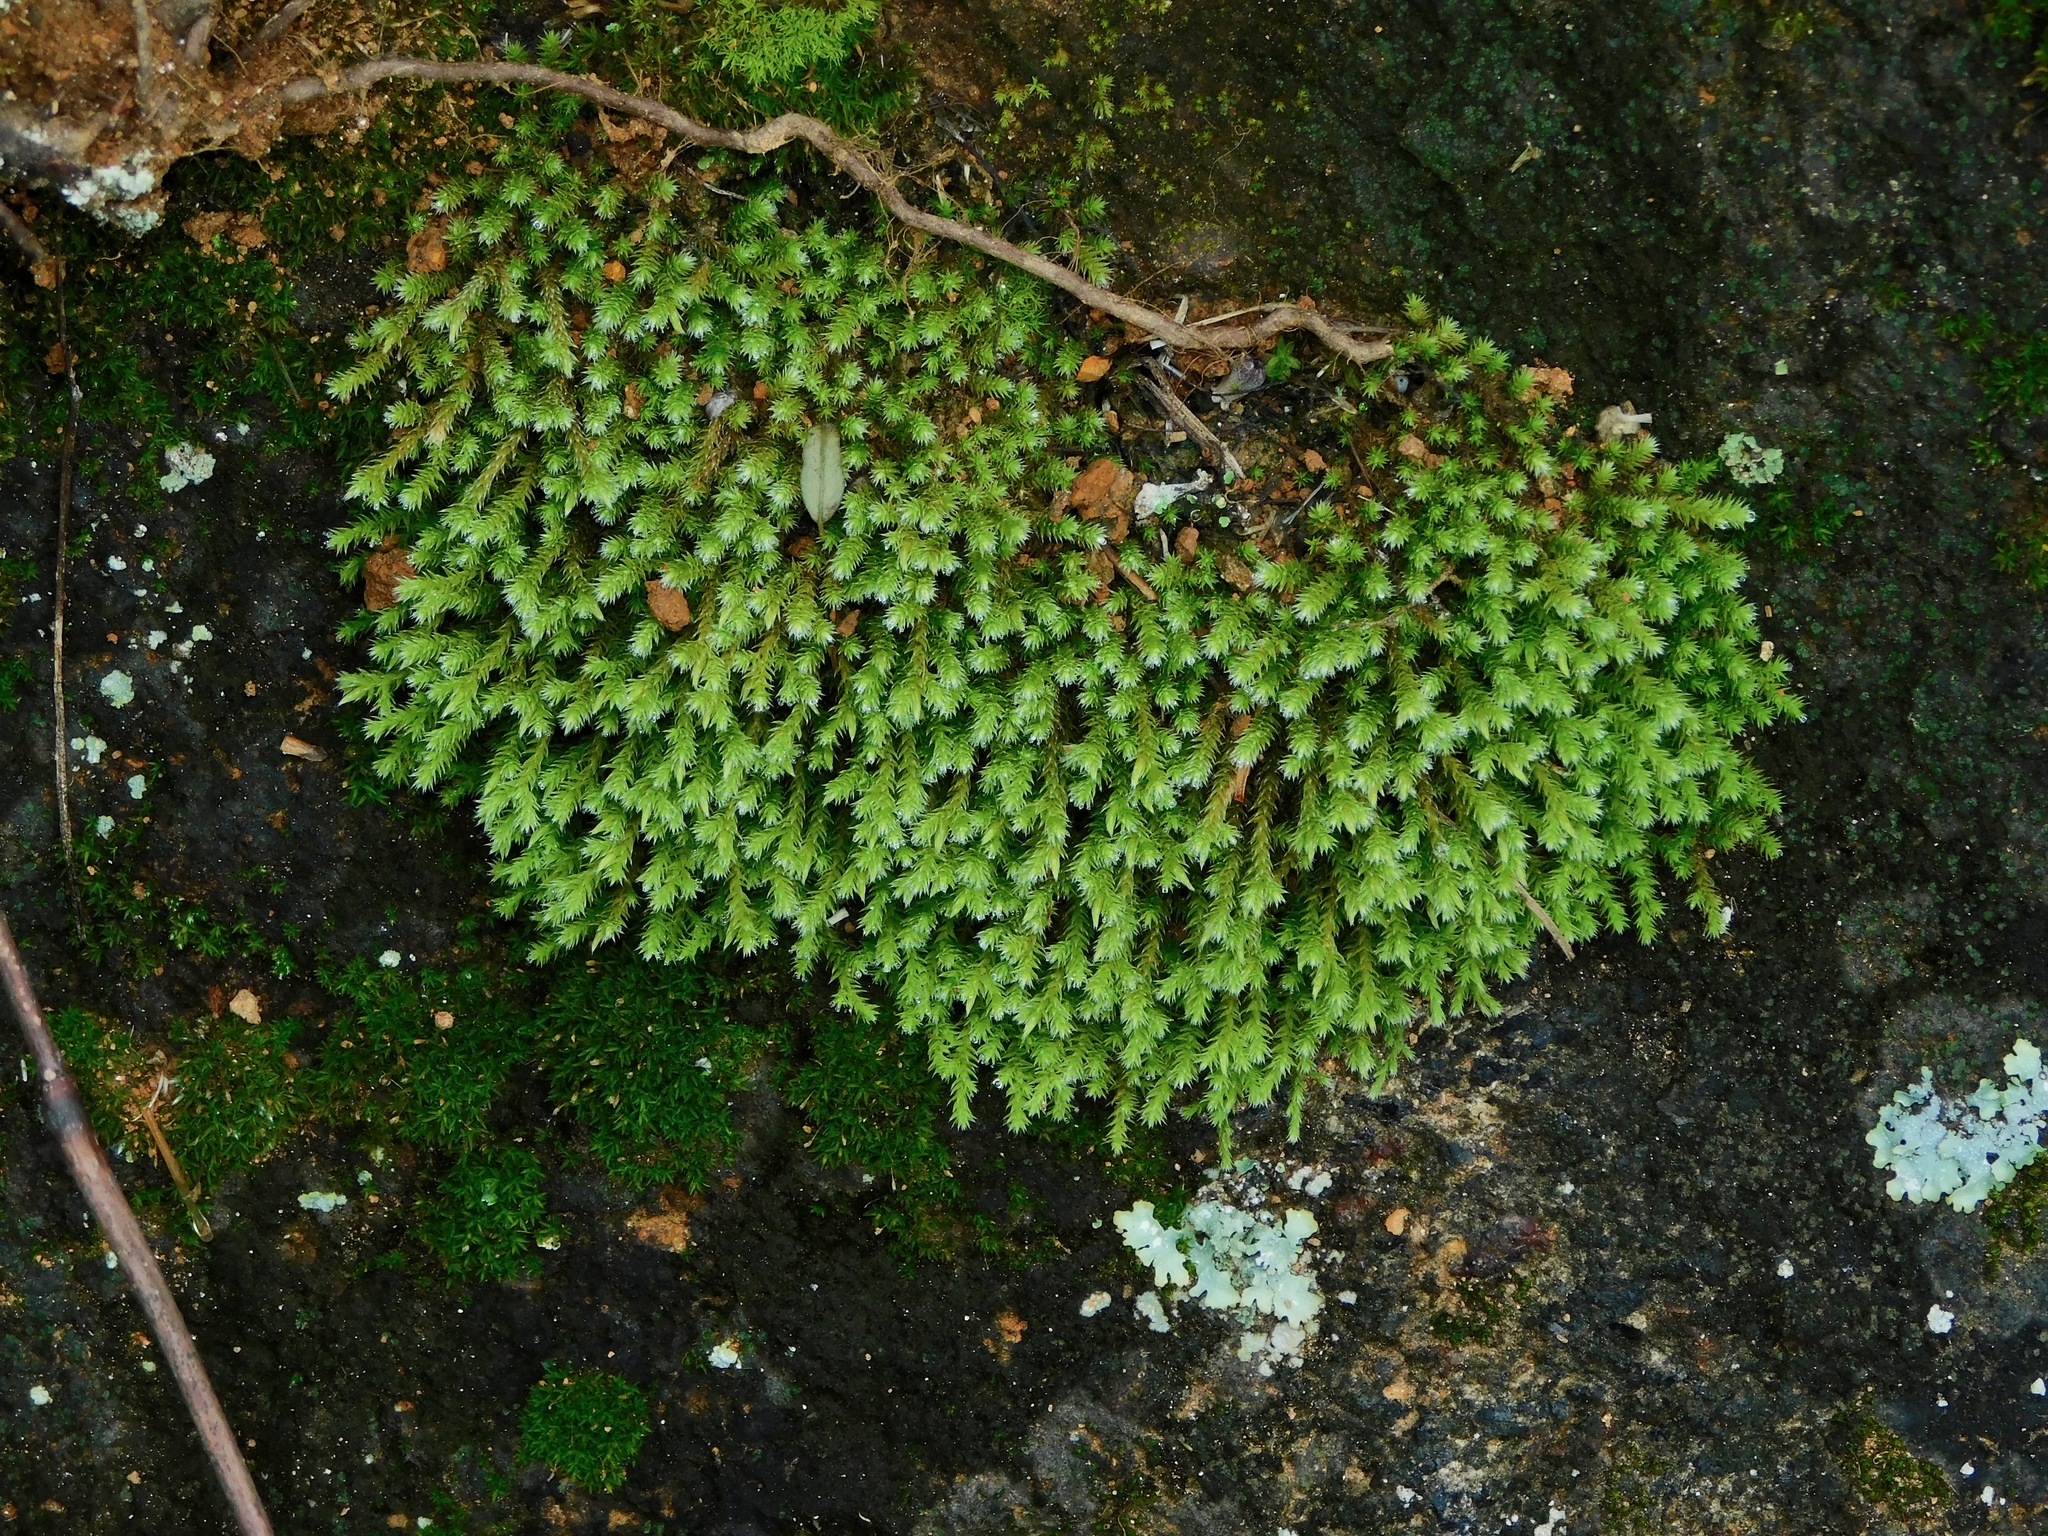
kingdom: Plantae
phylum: Bryophyta
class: Bryopsida
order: Hedwigiales
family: Hedwigiaceae
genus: Hedwigia
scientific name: Hedwigia ciliata
